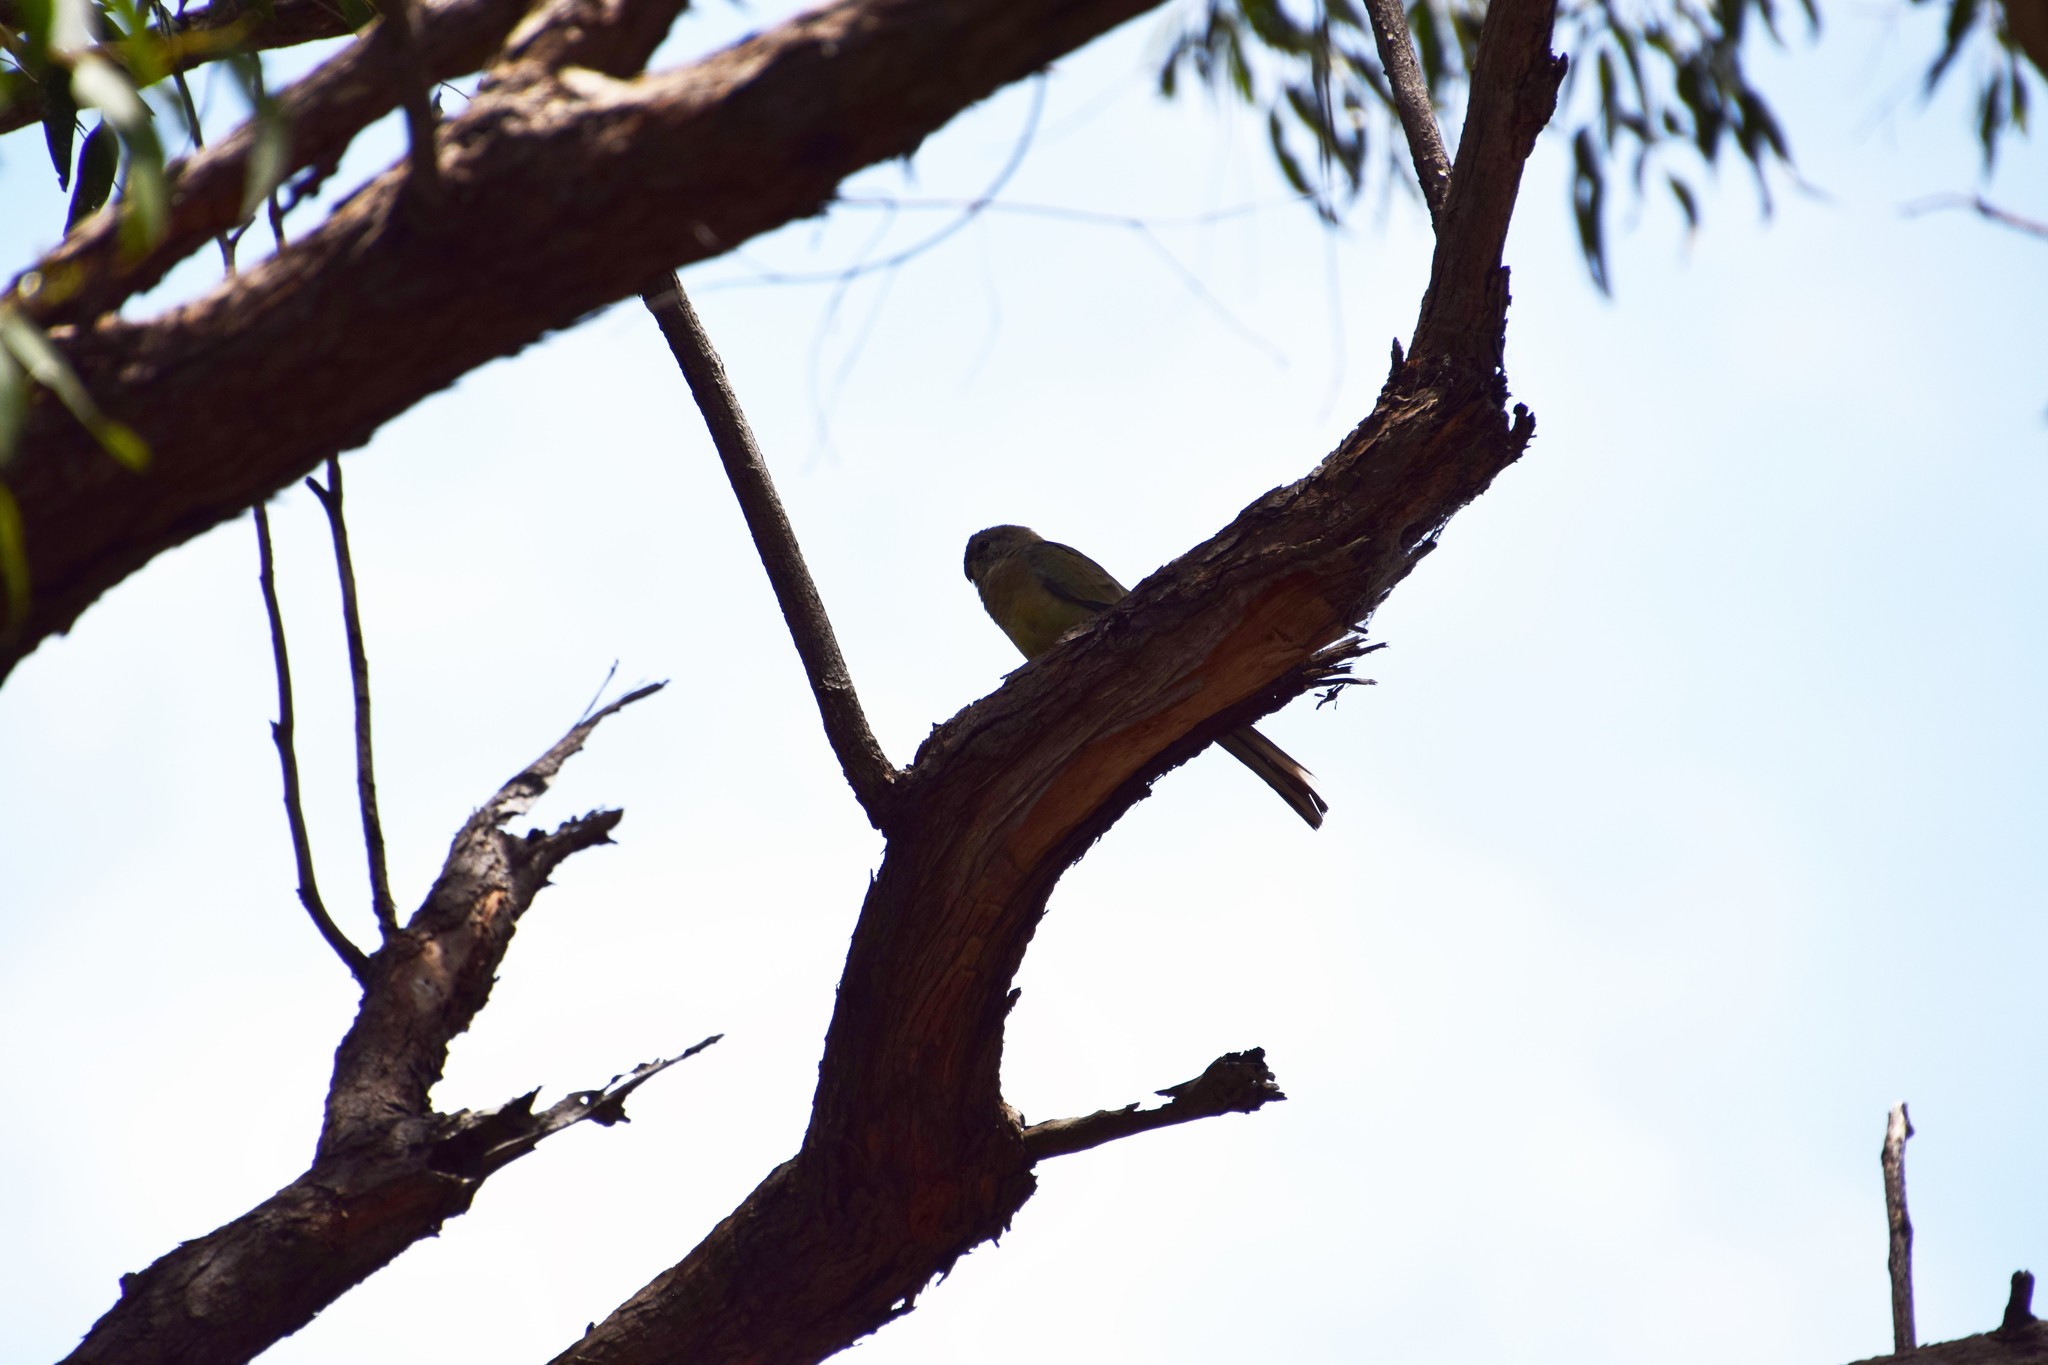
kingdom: Animalia
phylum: Chordata
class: Aves
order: Psittaciformes
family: Psittacidae
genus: Psephotus
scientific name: Psephotus haematonotus
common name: Red-rumped parrot
